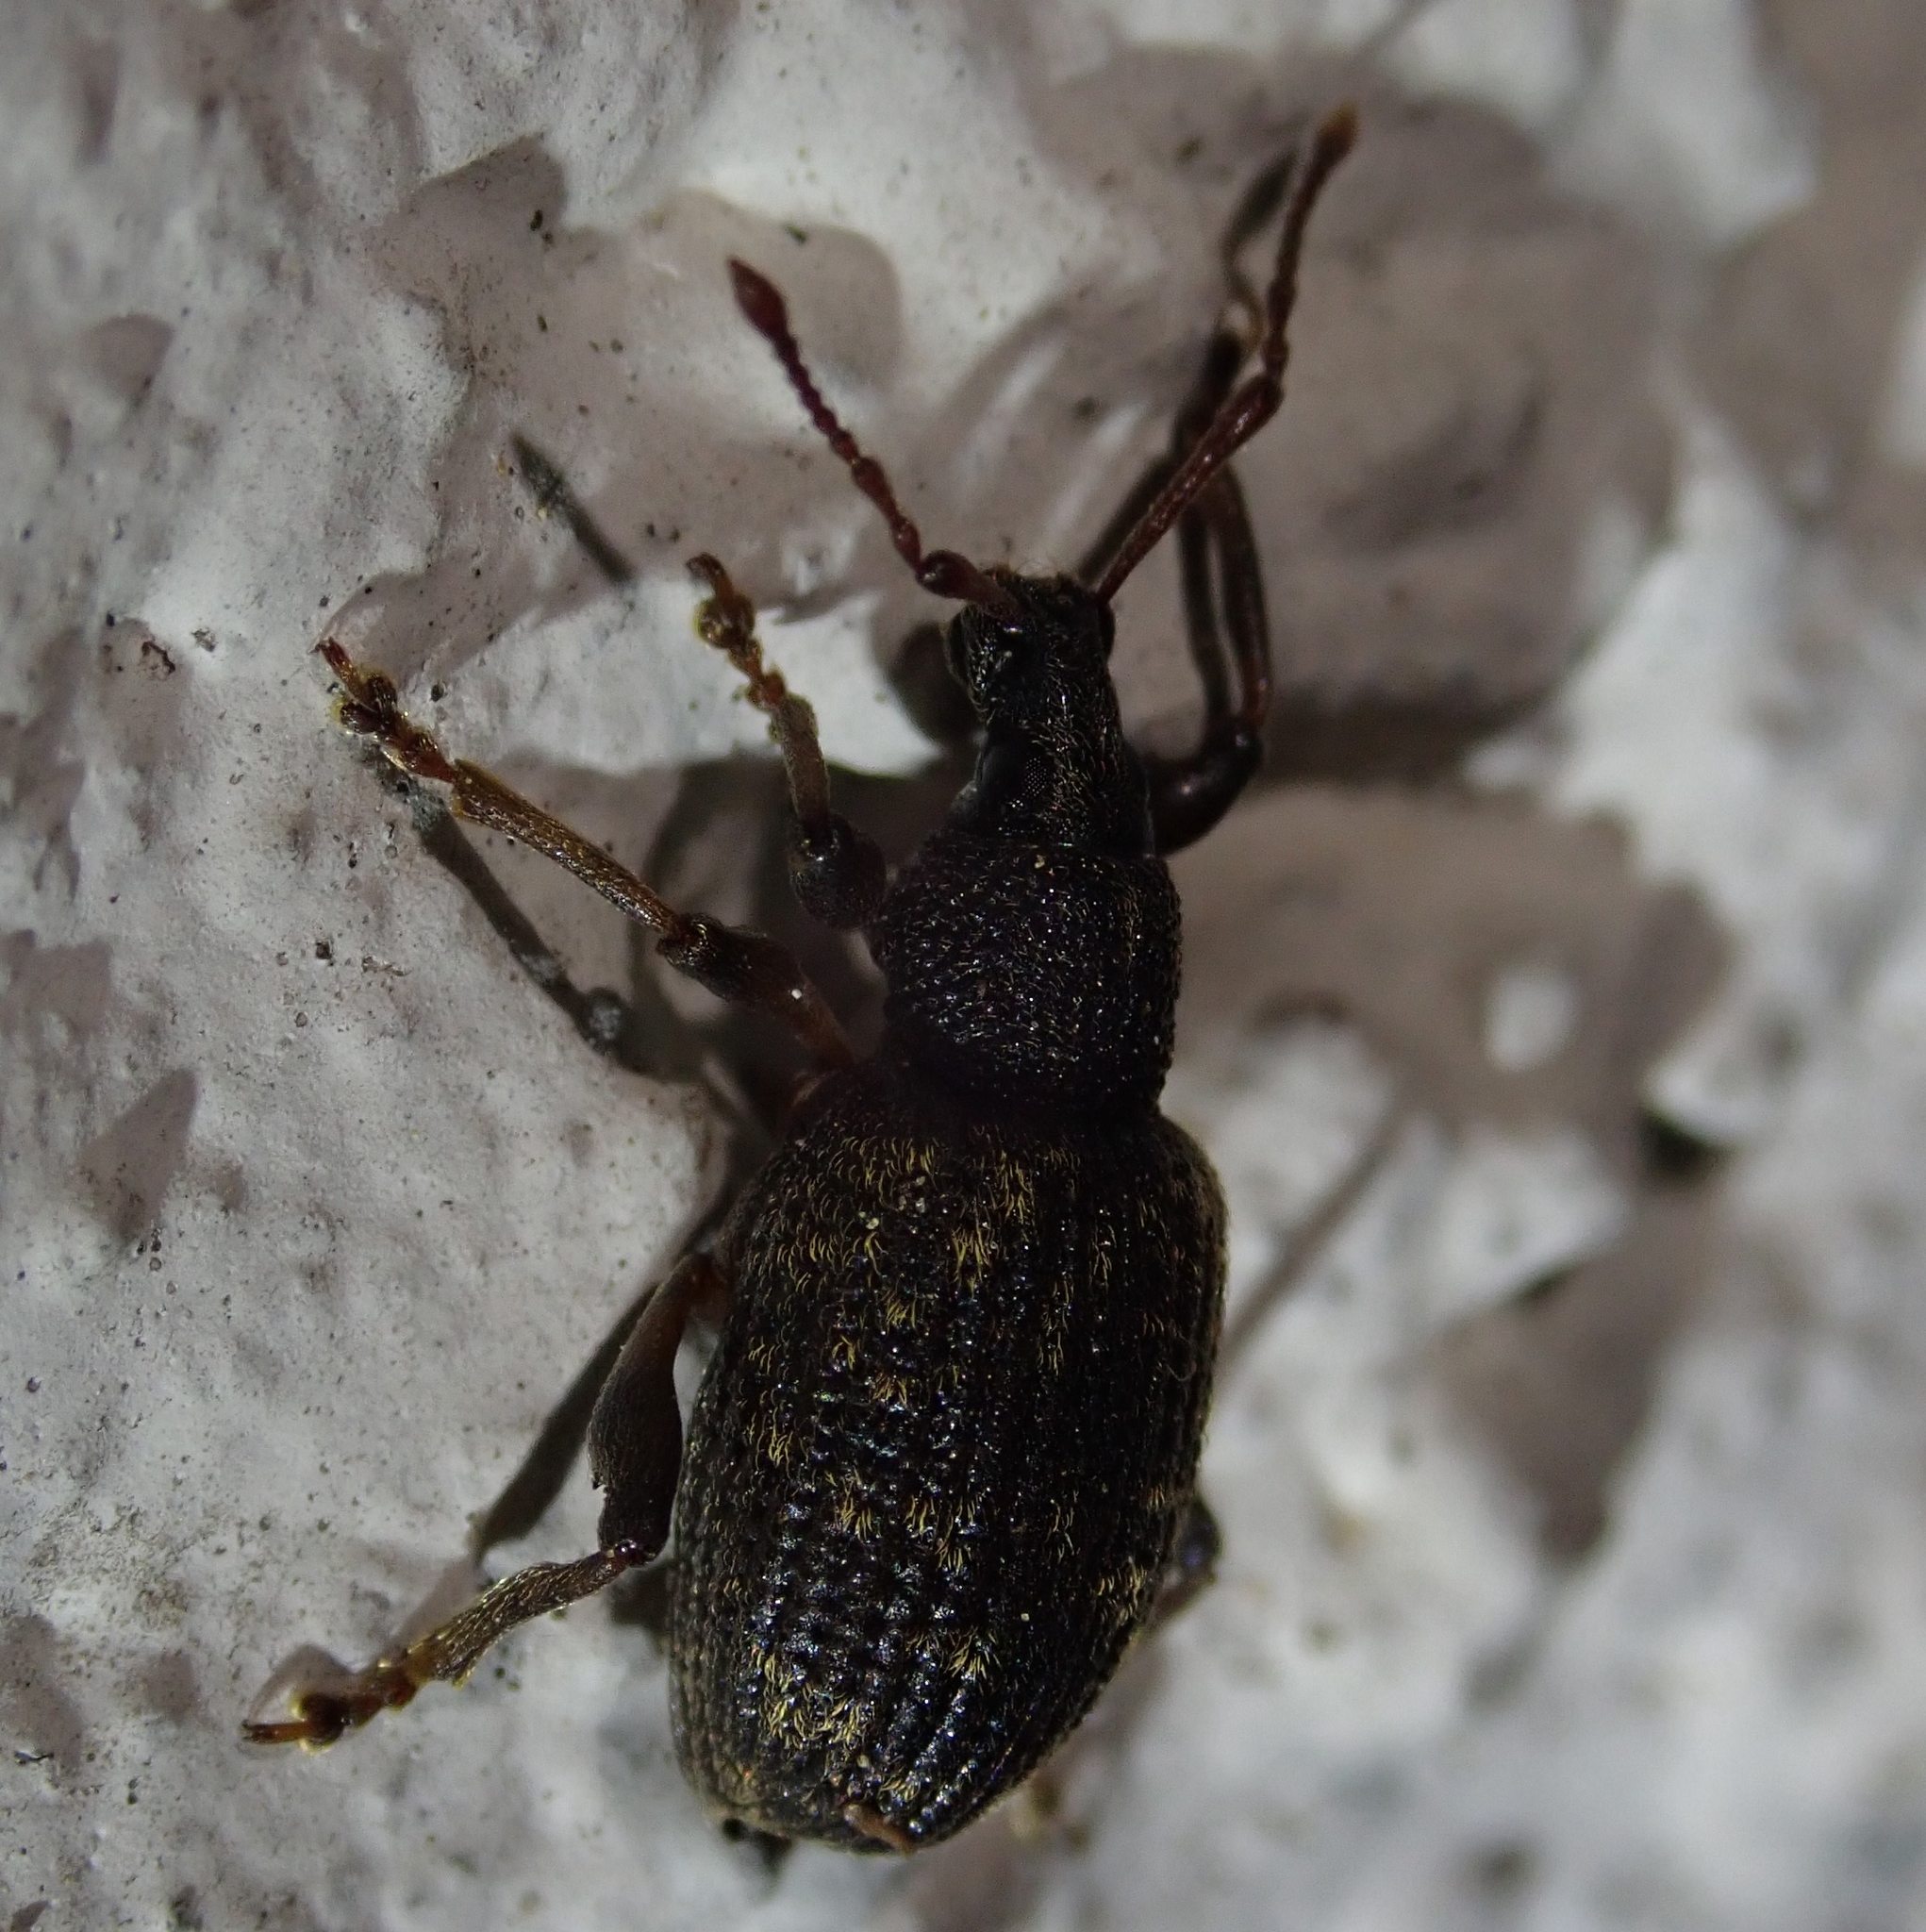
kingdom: Animalia
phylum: Arthropoda
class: Insecta
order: Coleoptera
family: Curculionidae
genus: Otiorhynchus
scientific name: Otiorhynchus sulcatus
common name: Black vine weevil
